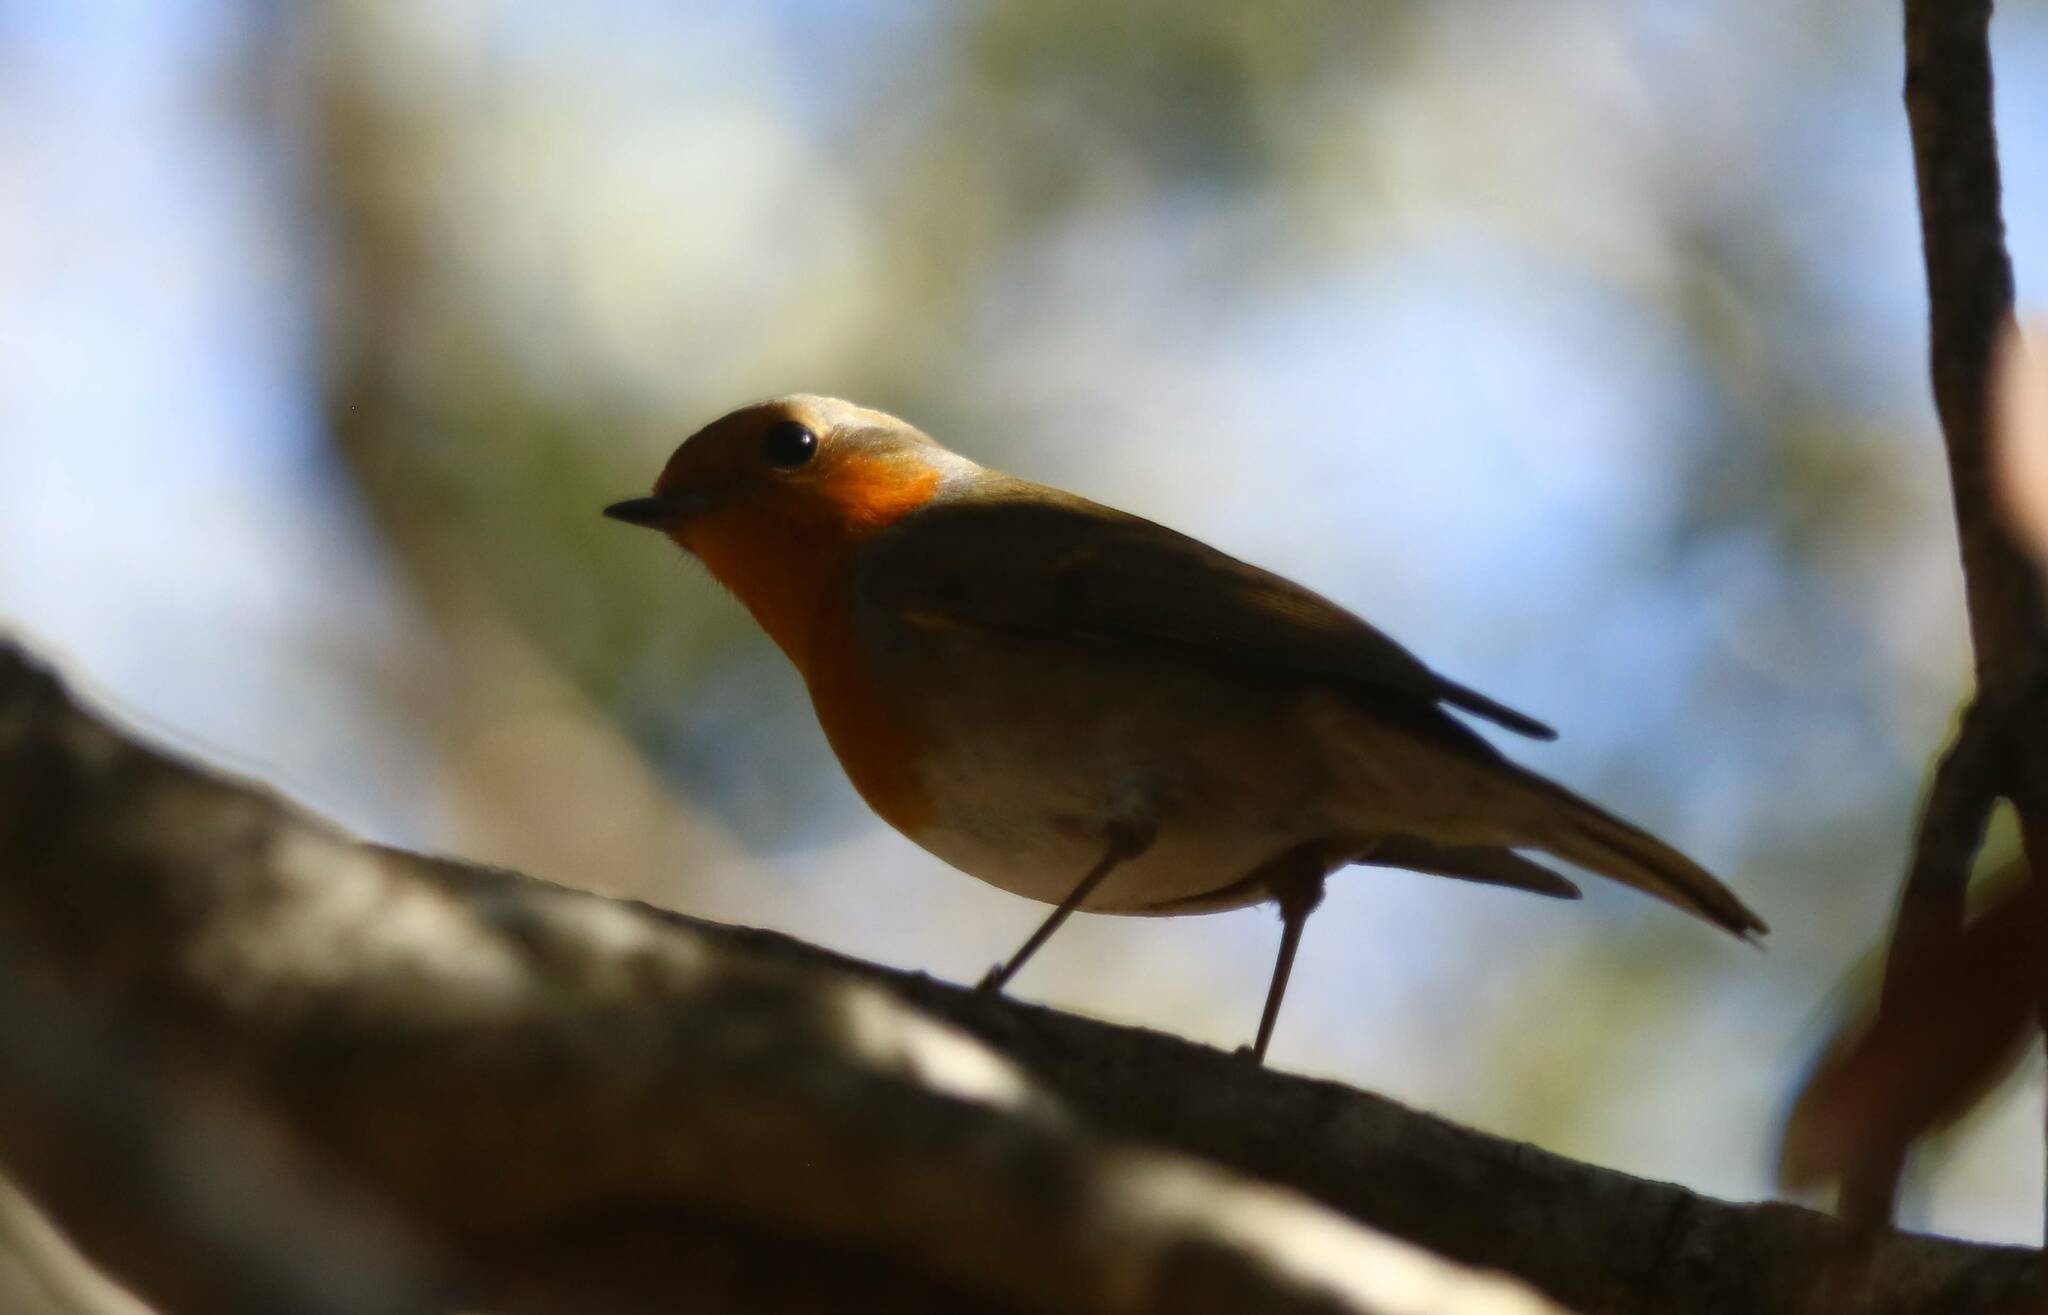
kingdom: Animalia
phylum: Chordata
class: Aves
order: Passeriformes
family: Muscicapidae
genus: Erithacus
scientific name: Erithacus rubecula
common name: European robin
